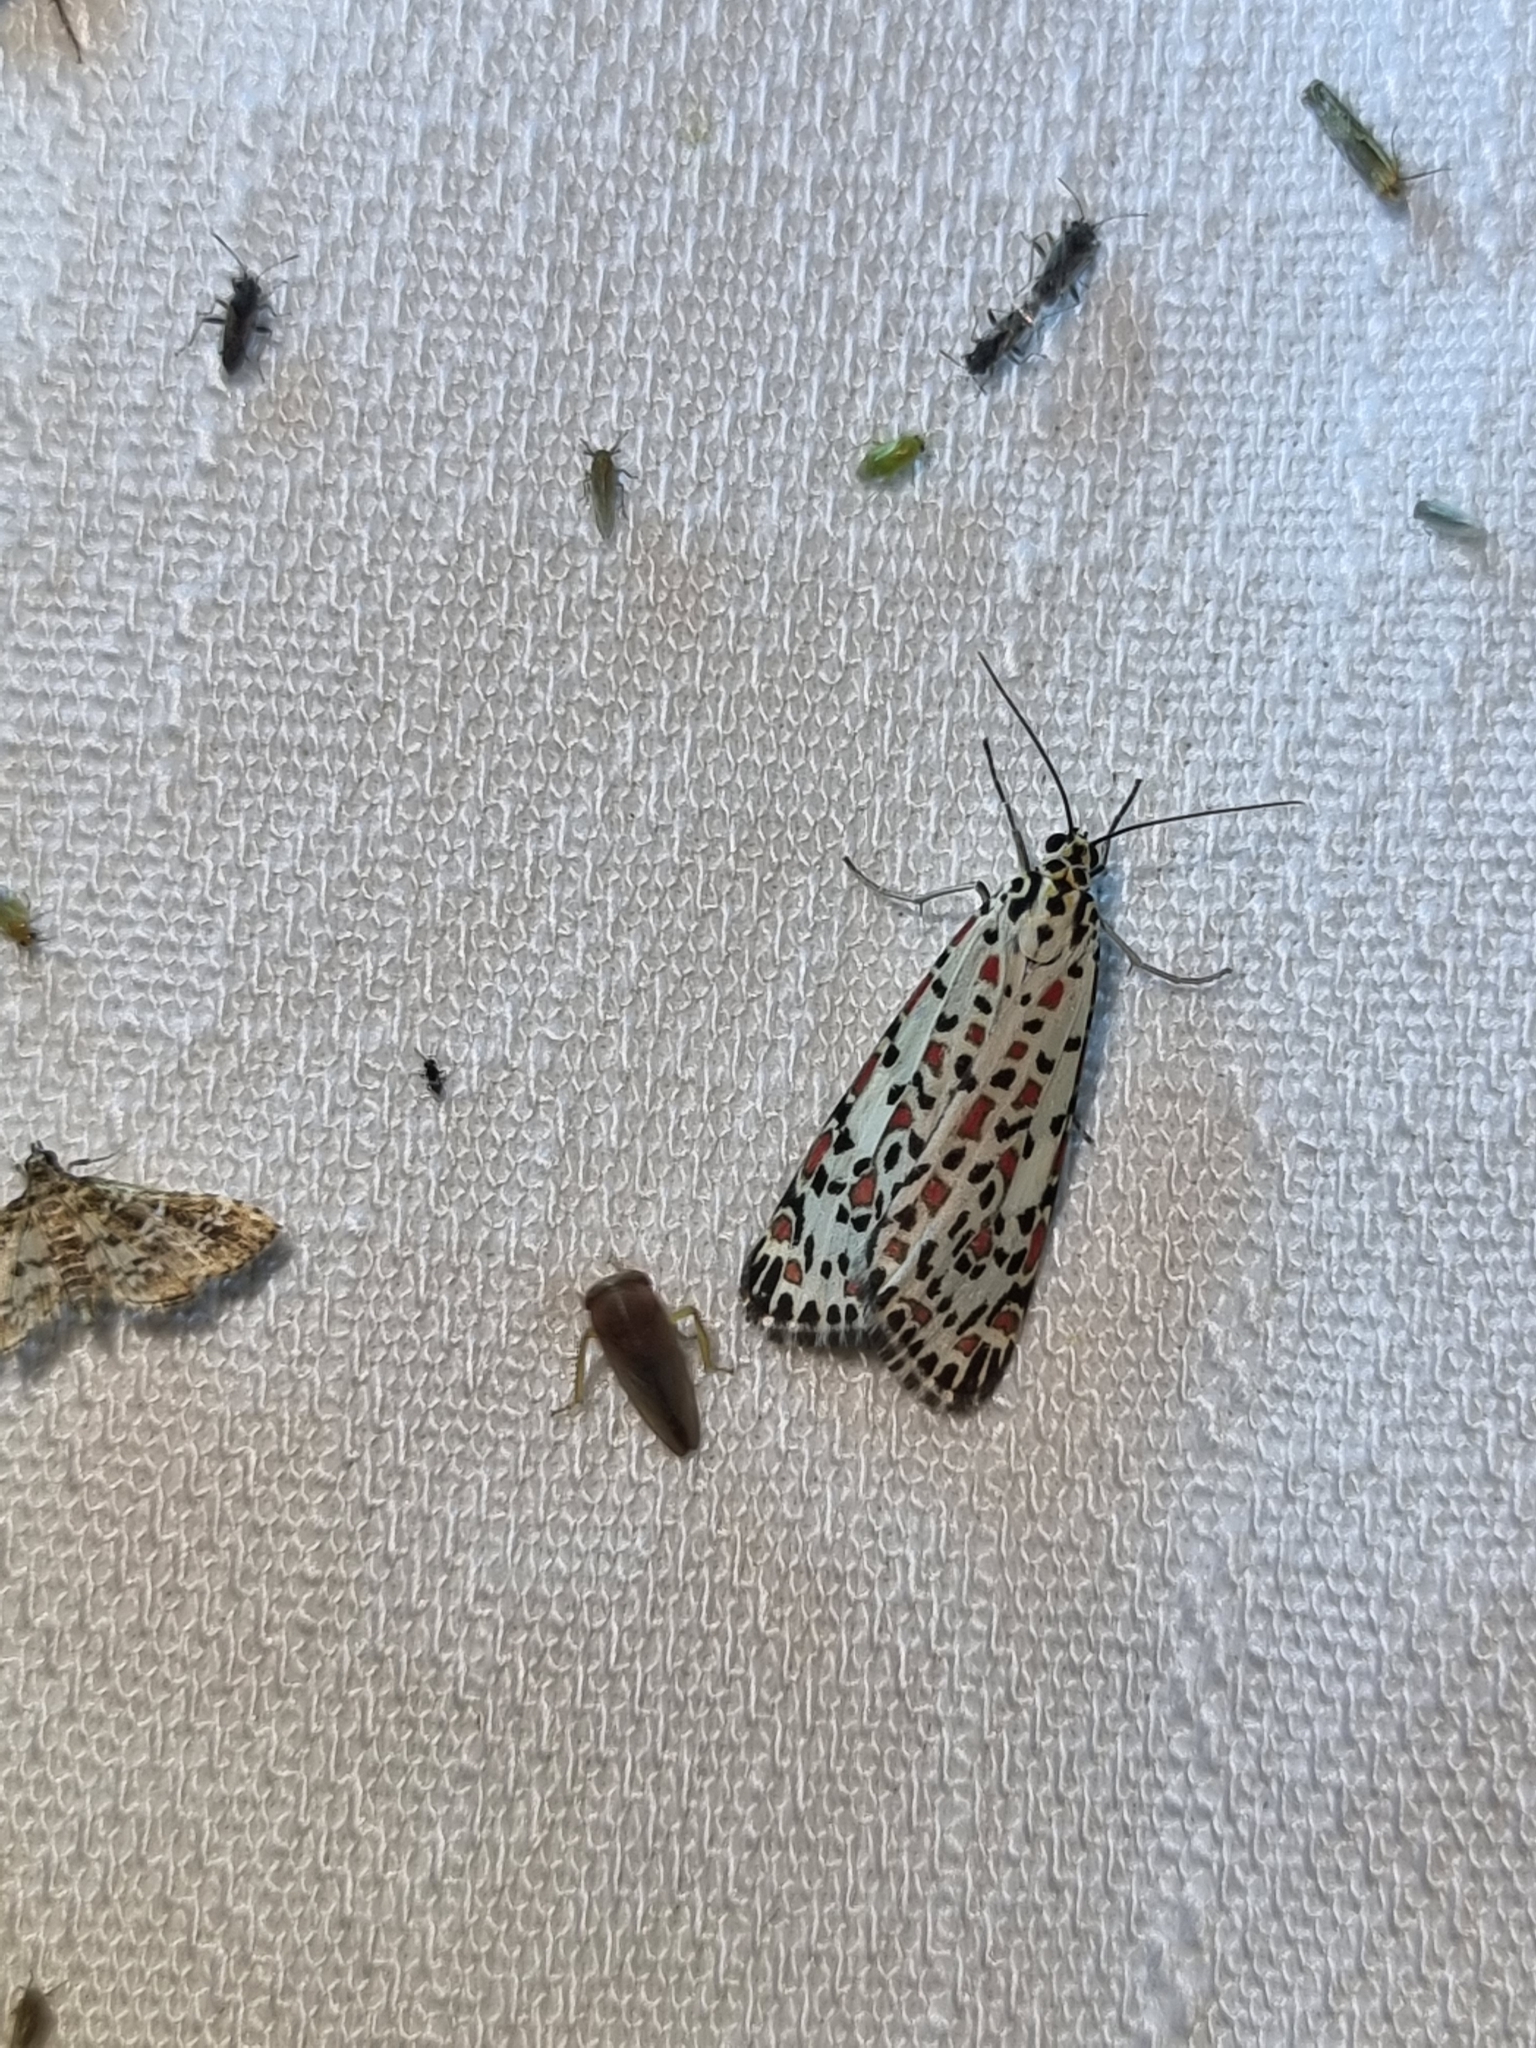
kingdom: Animalia
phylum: Arthropoda
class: Insecta
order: Lepidoptera
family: Erebidae
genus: Utetheisa
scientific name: Utetheisa pulchelloides
